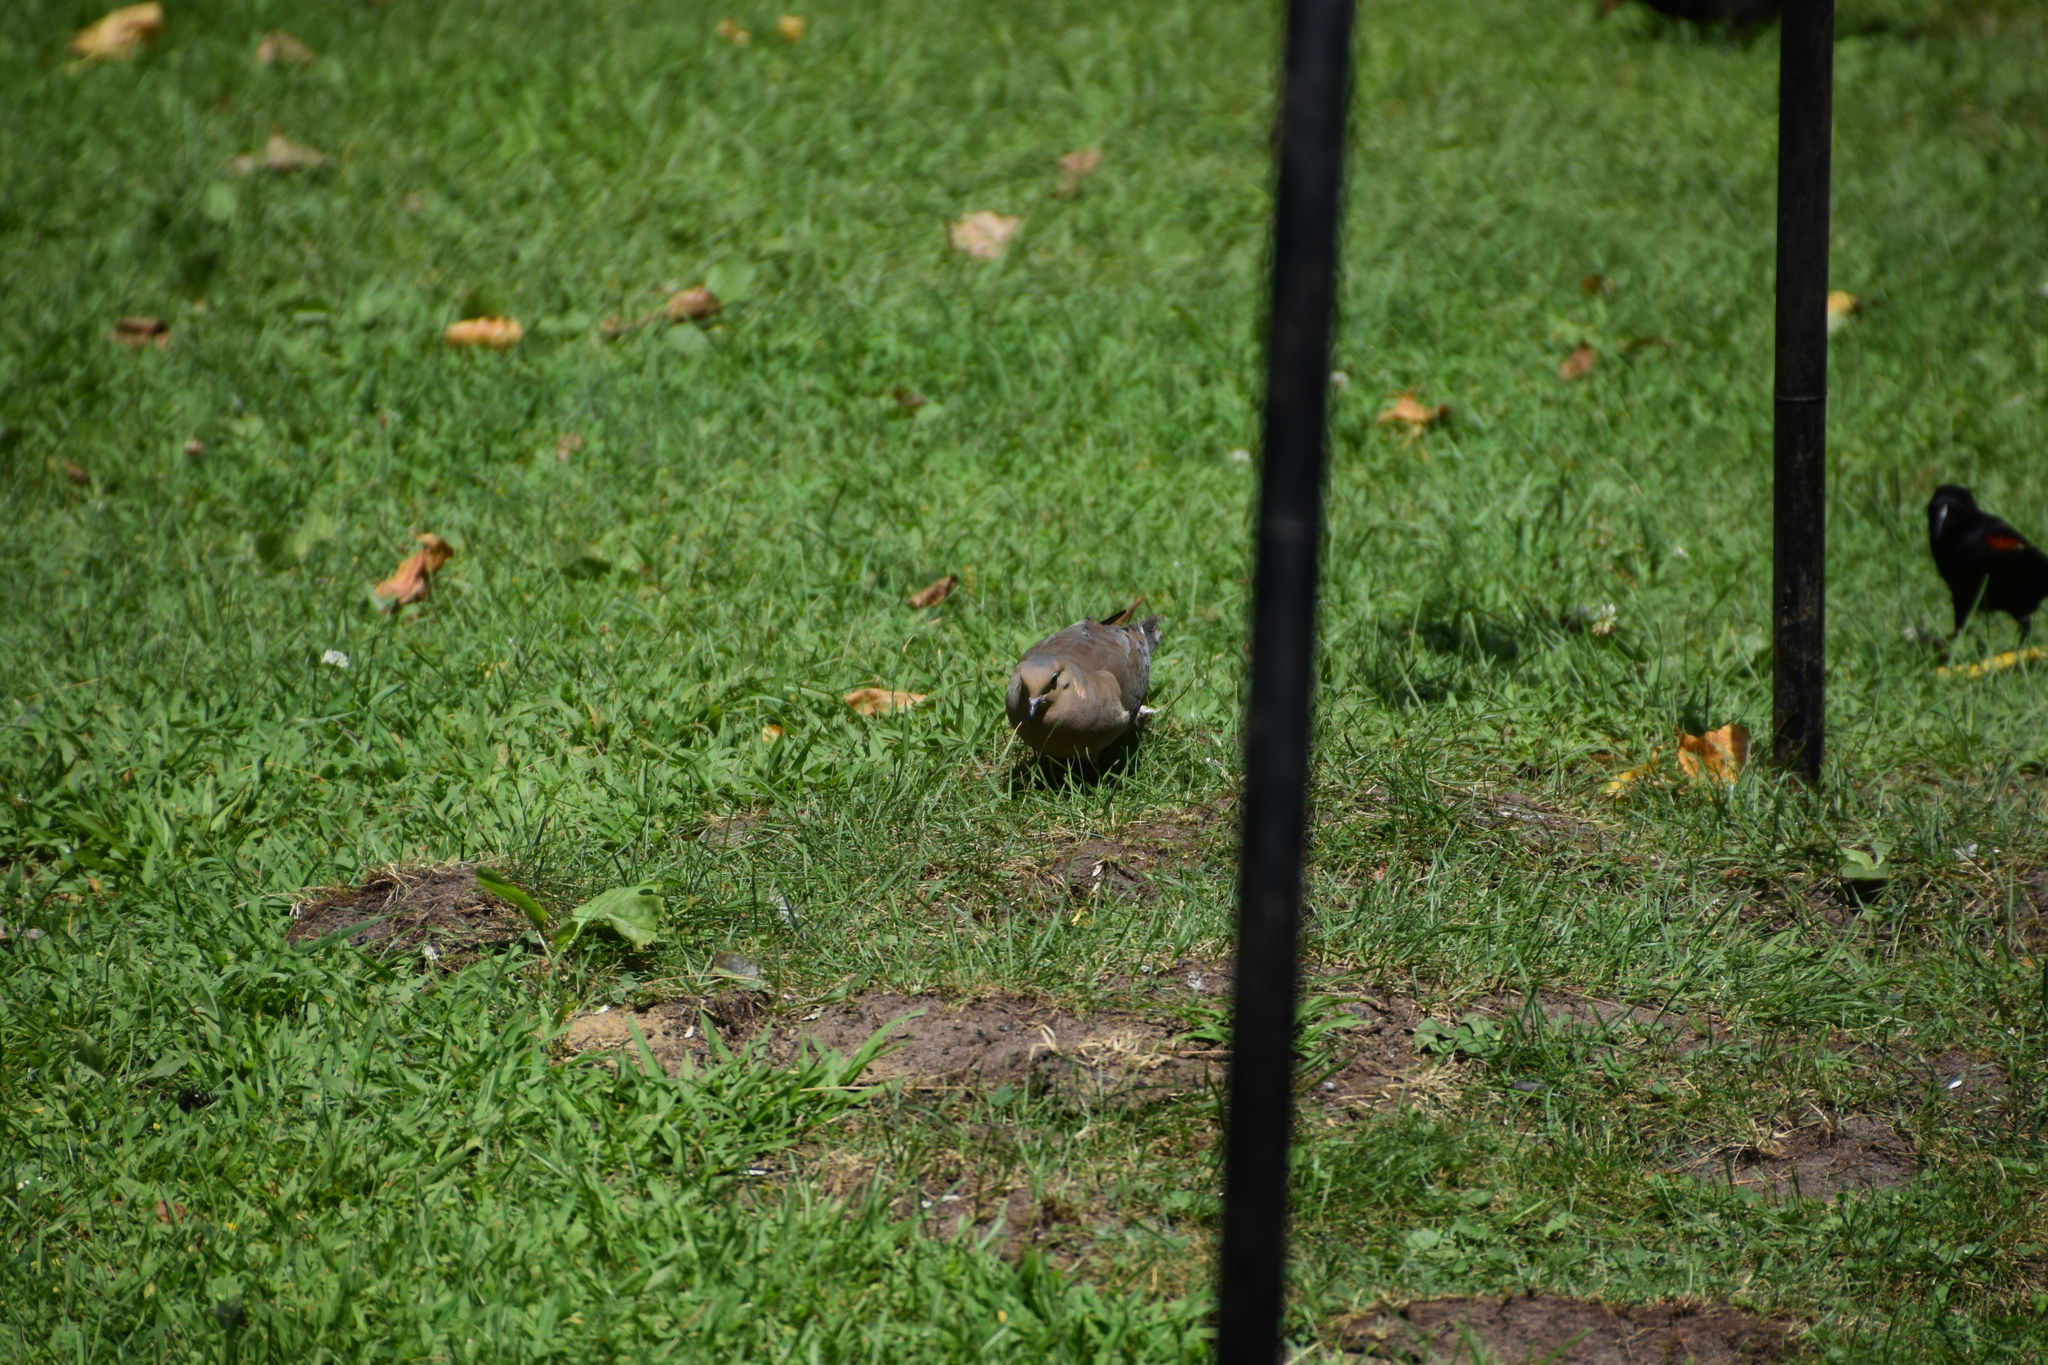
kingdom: Animalia
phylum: Chordata
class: Aves
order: Columbiformes
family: Columbidae
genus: Zenaida
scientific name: Zenaida macroura
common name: Mourning dove
